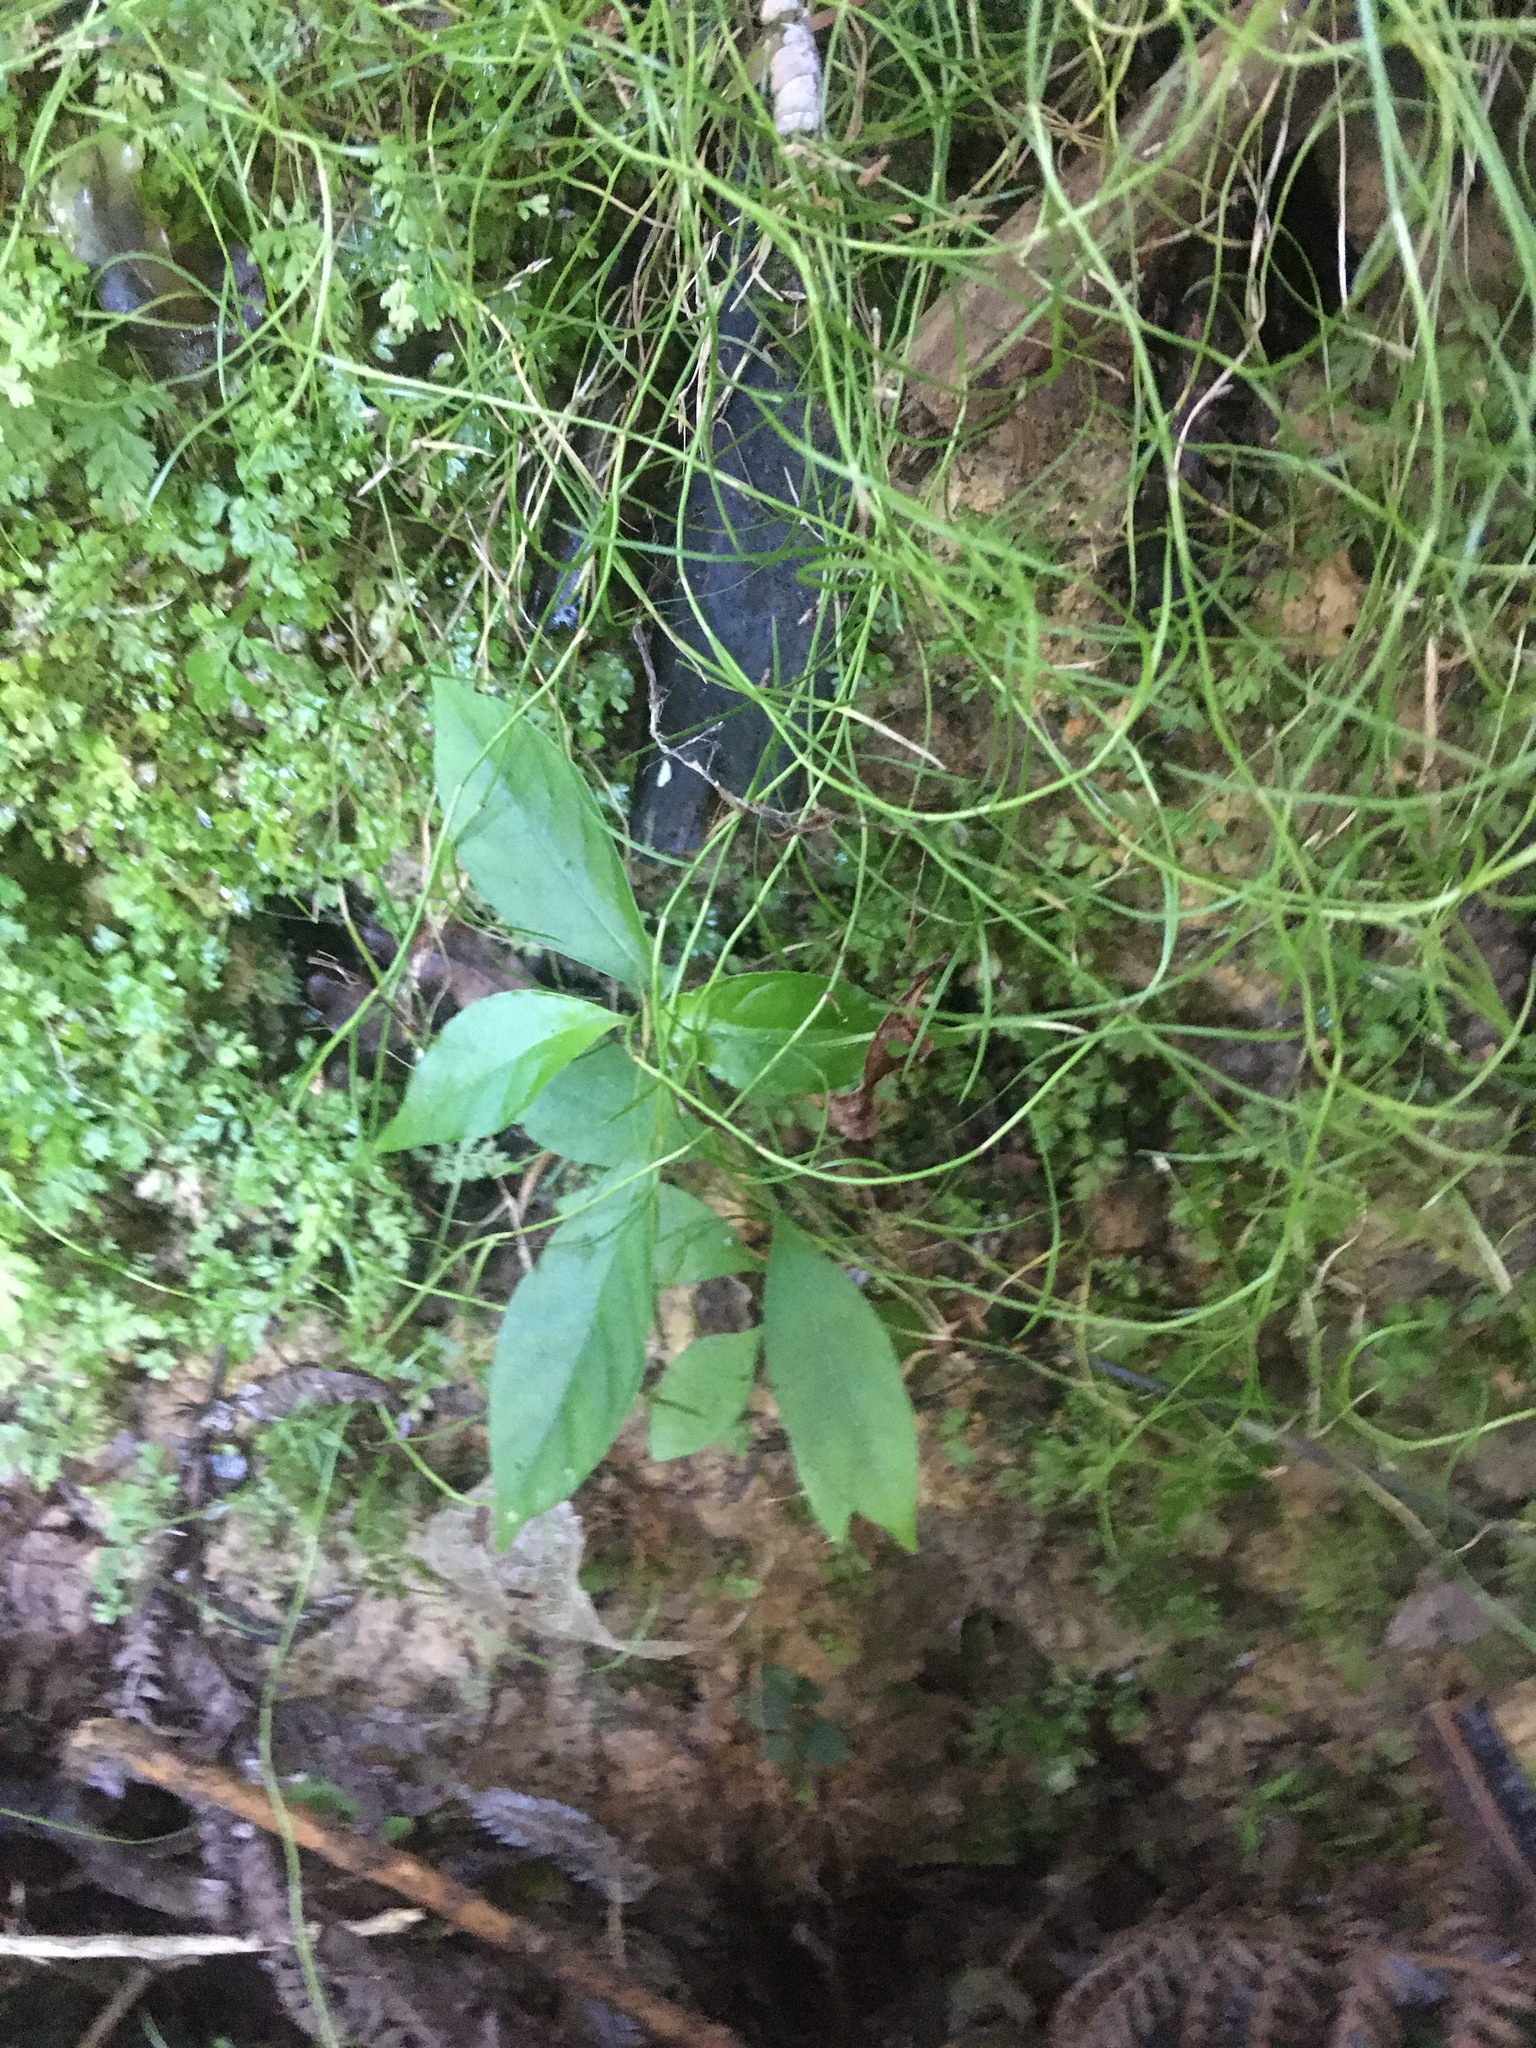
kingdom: Plantae
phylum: Tracheophyta
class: Magnoliopsida
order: Gentianales
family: Loganiaceae
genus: Geniostoma
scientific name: Geniostoma ligustrifolium
